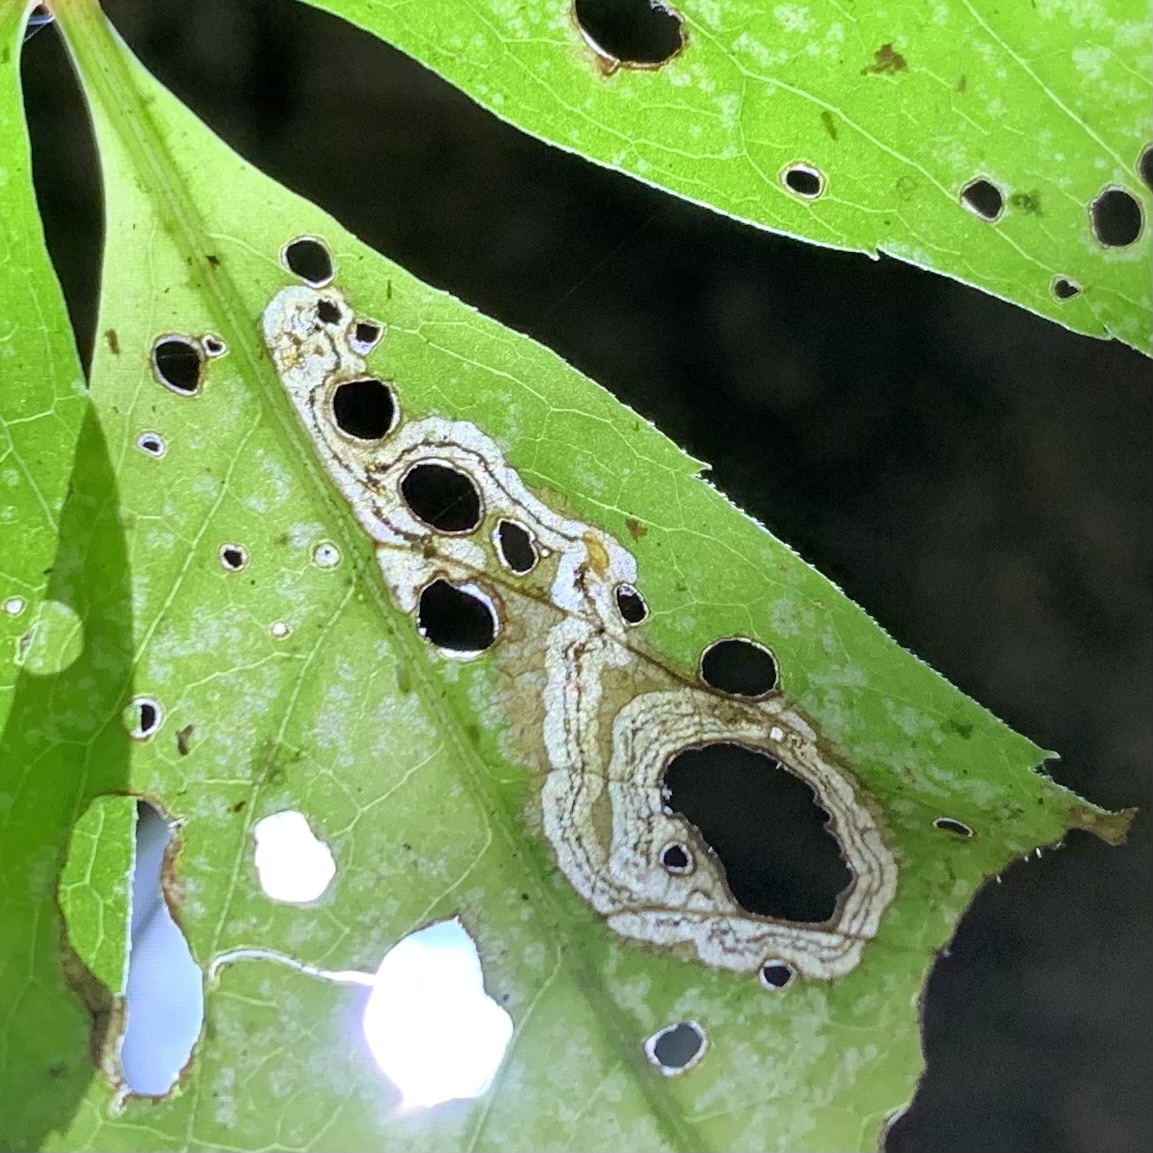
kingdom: Animalia
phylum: Arthropoda
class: Insecta
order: Coleoptera
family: Curculionidae
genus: Orchestomerus
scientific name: Orchestomerus eisemani
